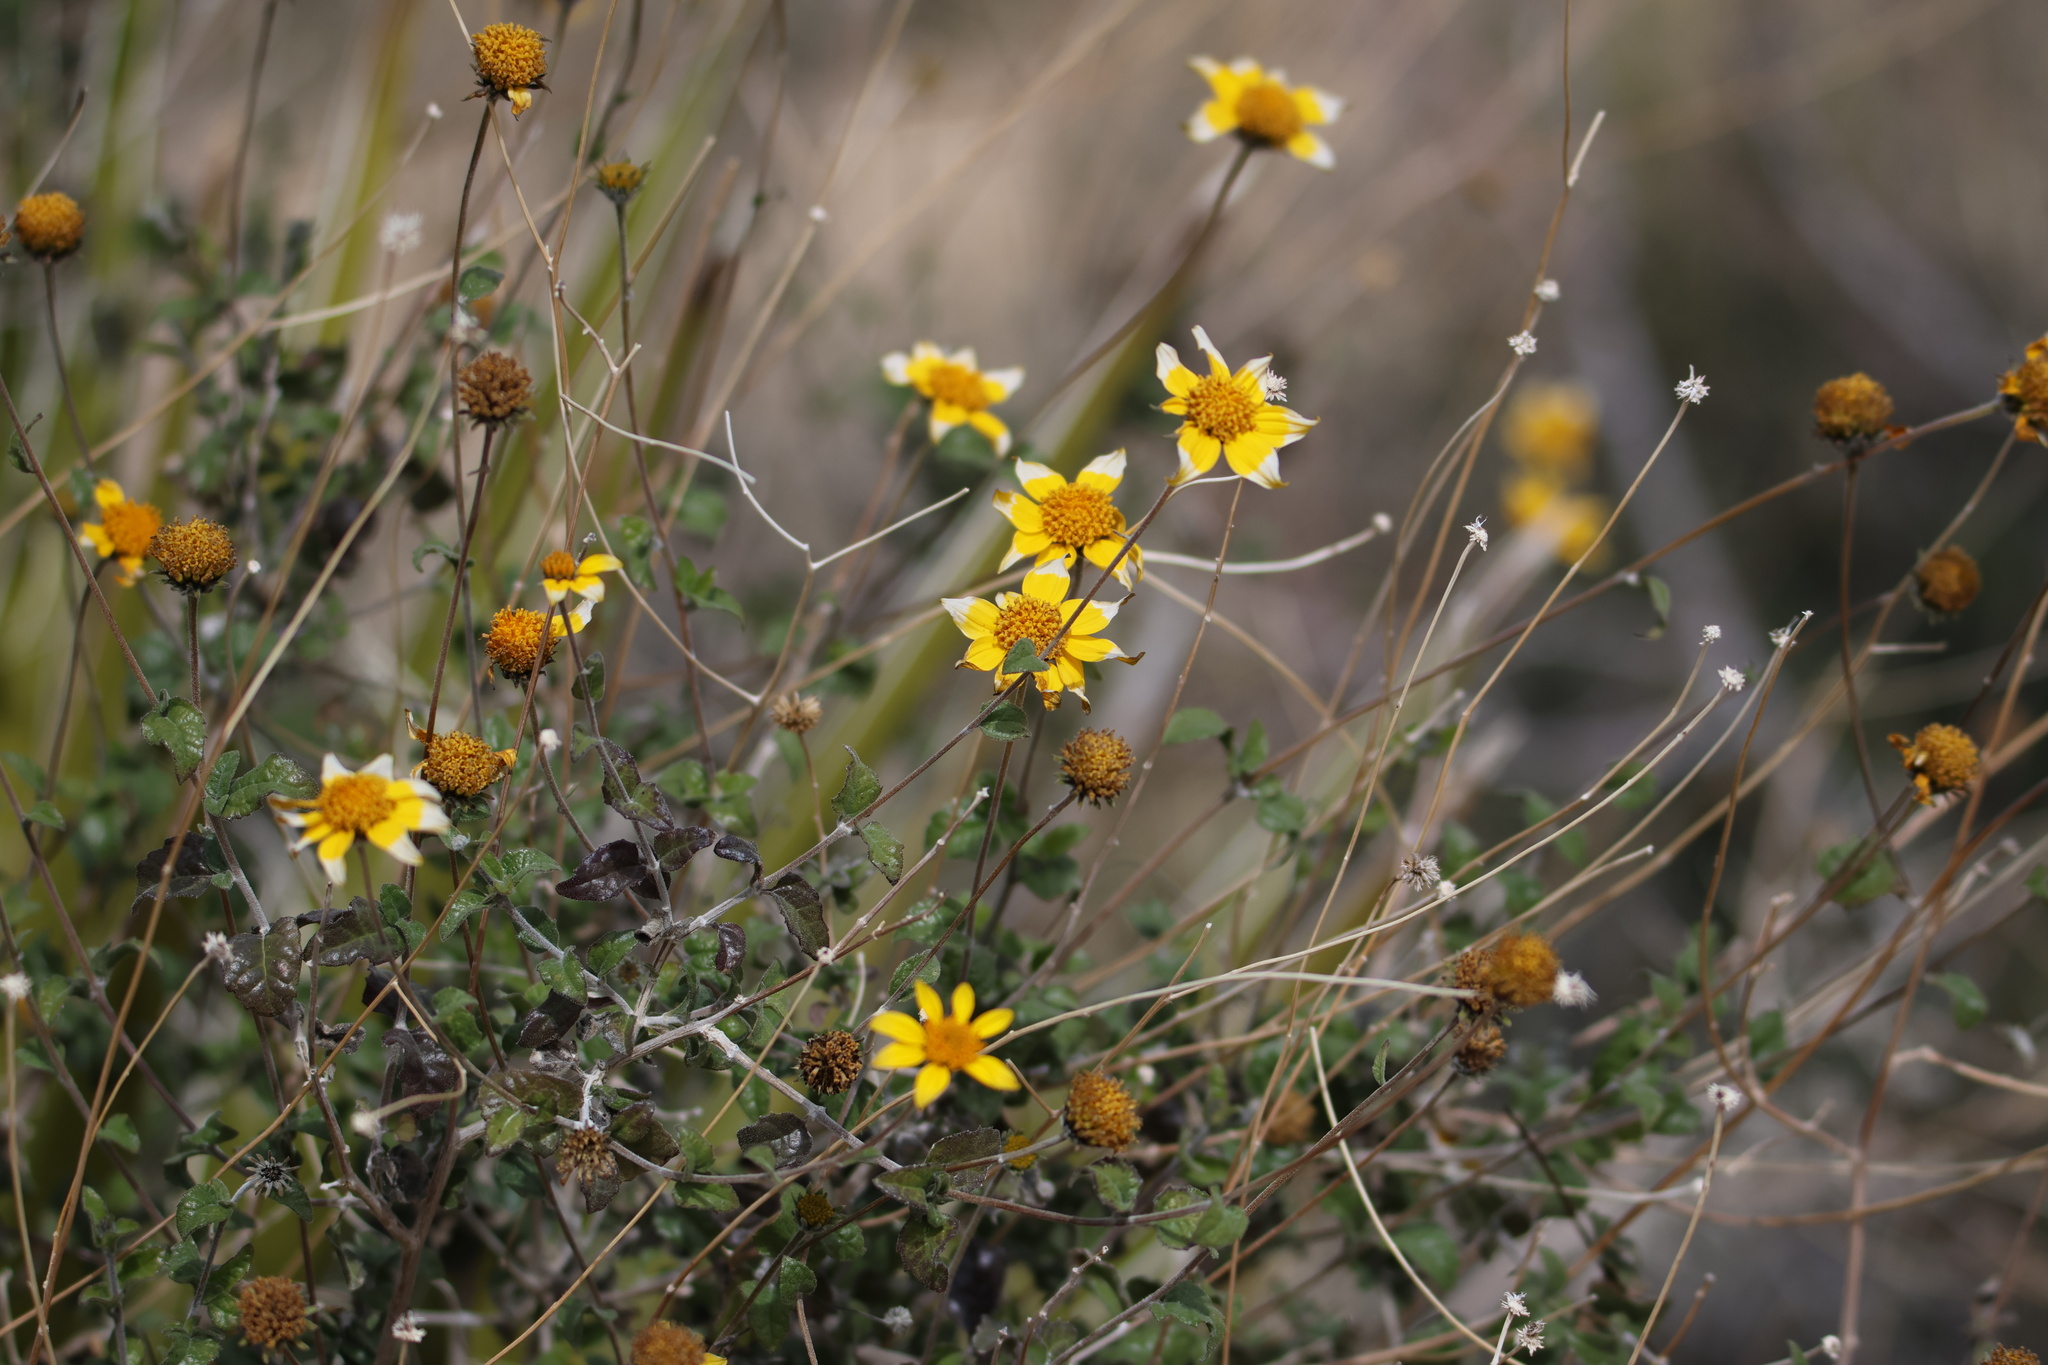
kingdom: Plantae
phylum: Tracheophyta
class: Magnoliopsida
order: Asterales
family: Asteraceae
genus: Bahiopsis
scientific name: Bahiopsis parishii
